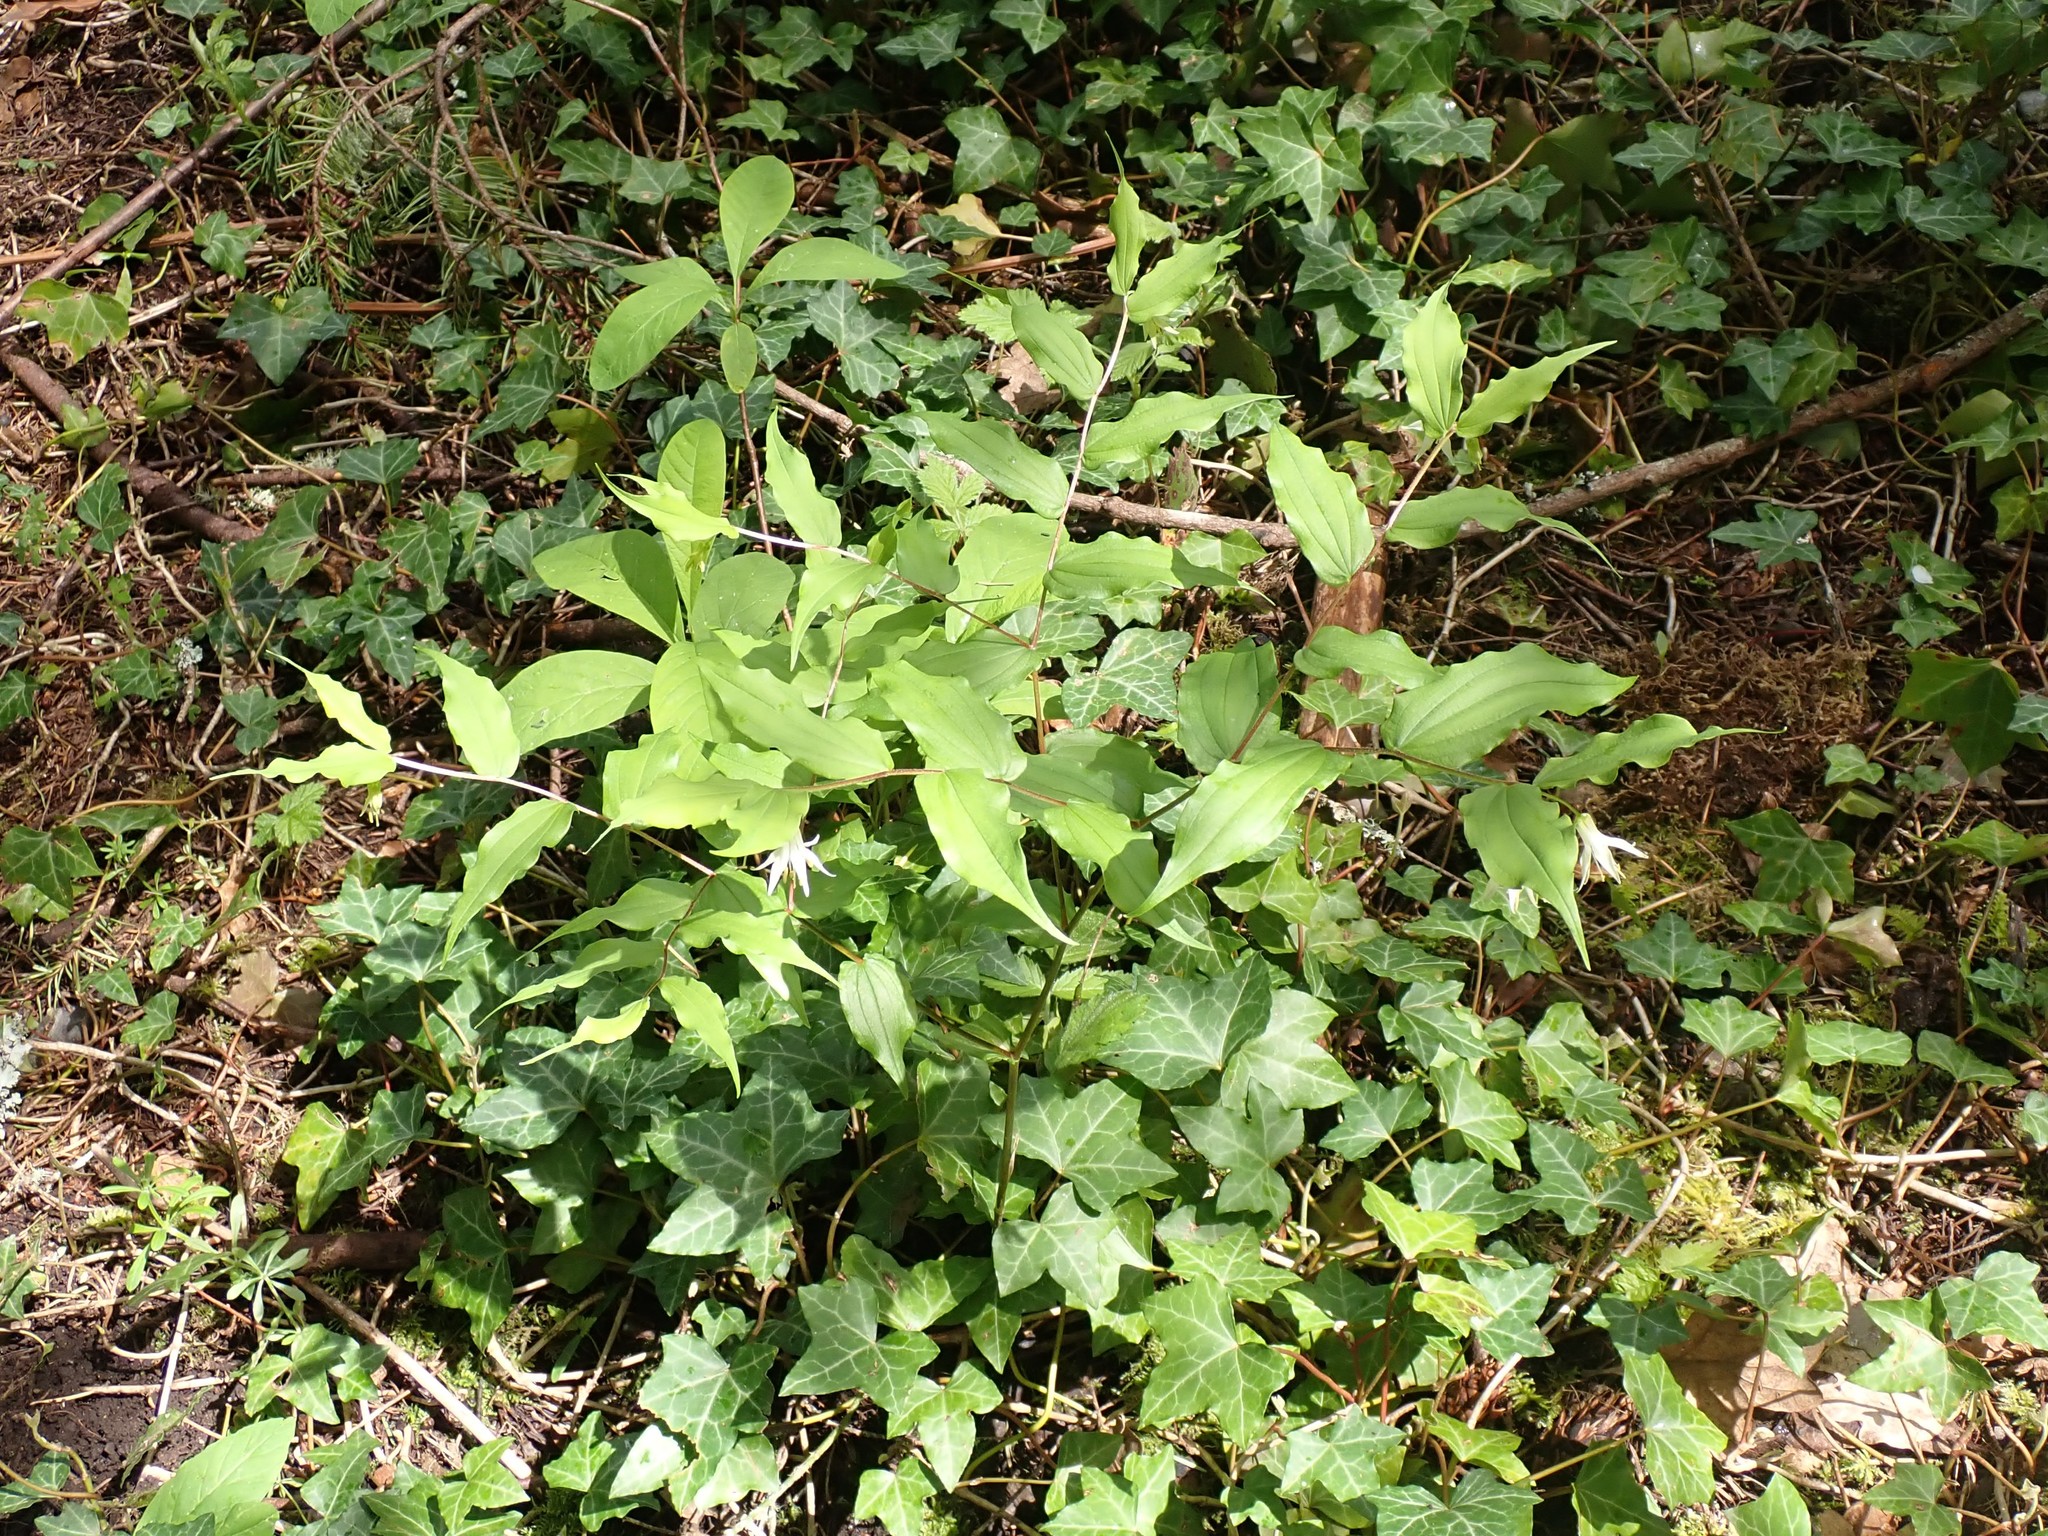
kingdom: Plantae
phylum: Tracheophyta
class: Liliopsida
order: Liliales
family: Liliaceae
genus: Prosartes
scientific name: Prosartes hookeri
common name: Fairy-bells
